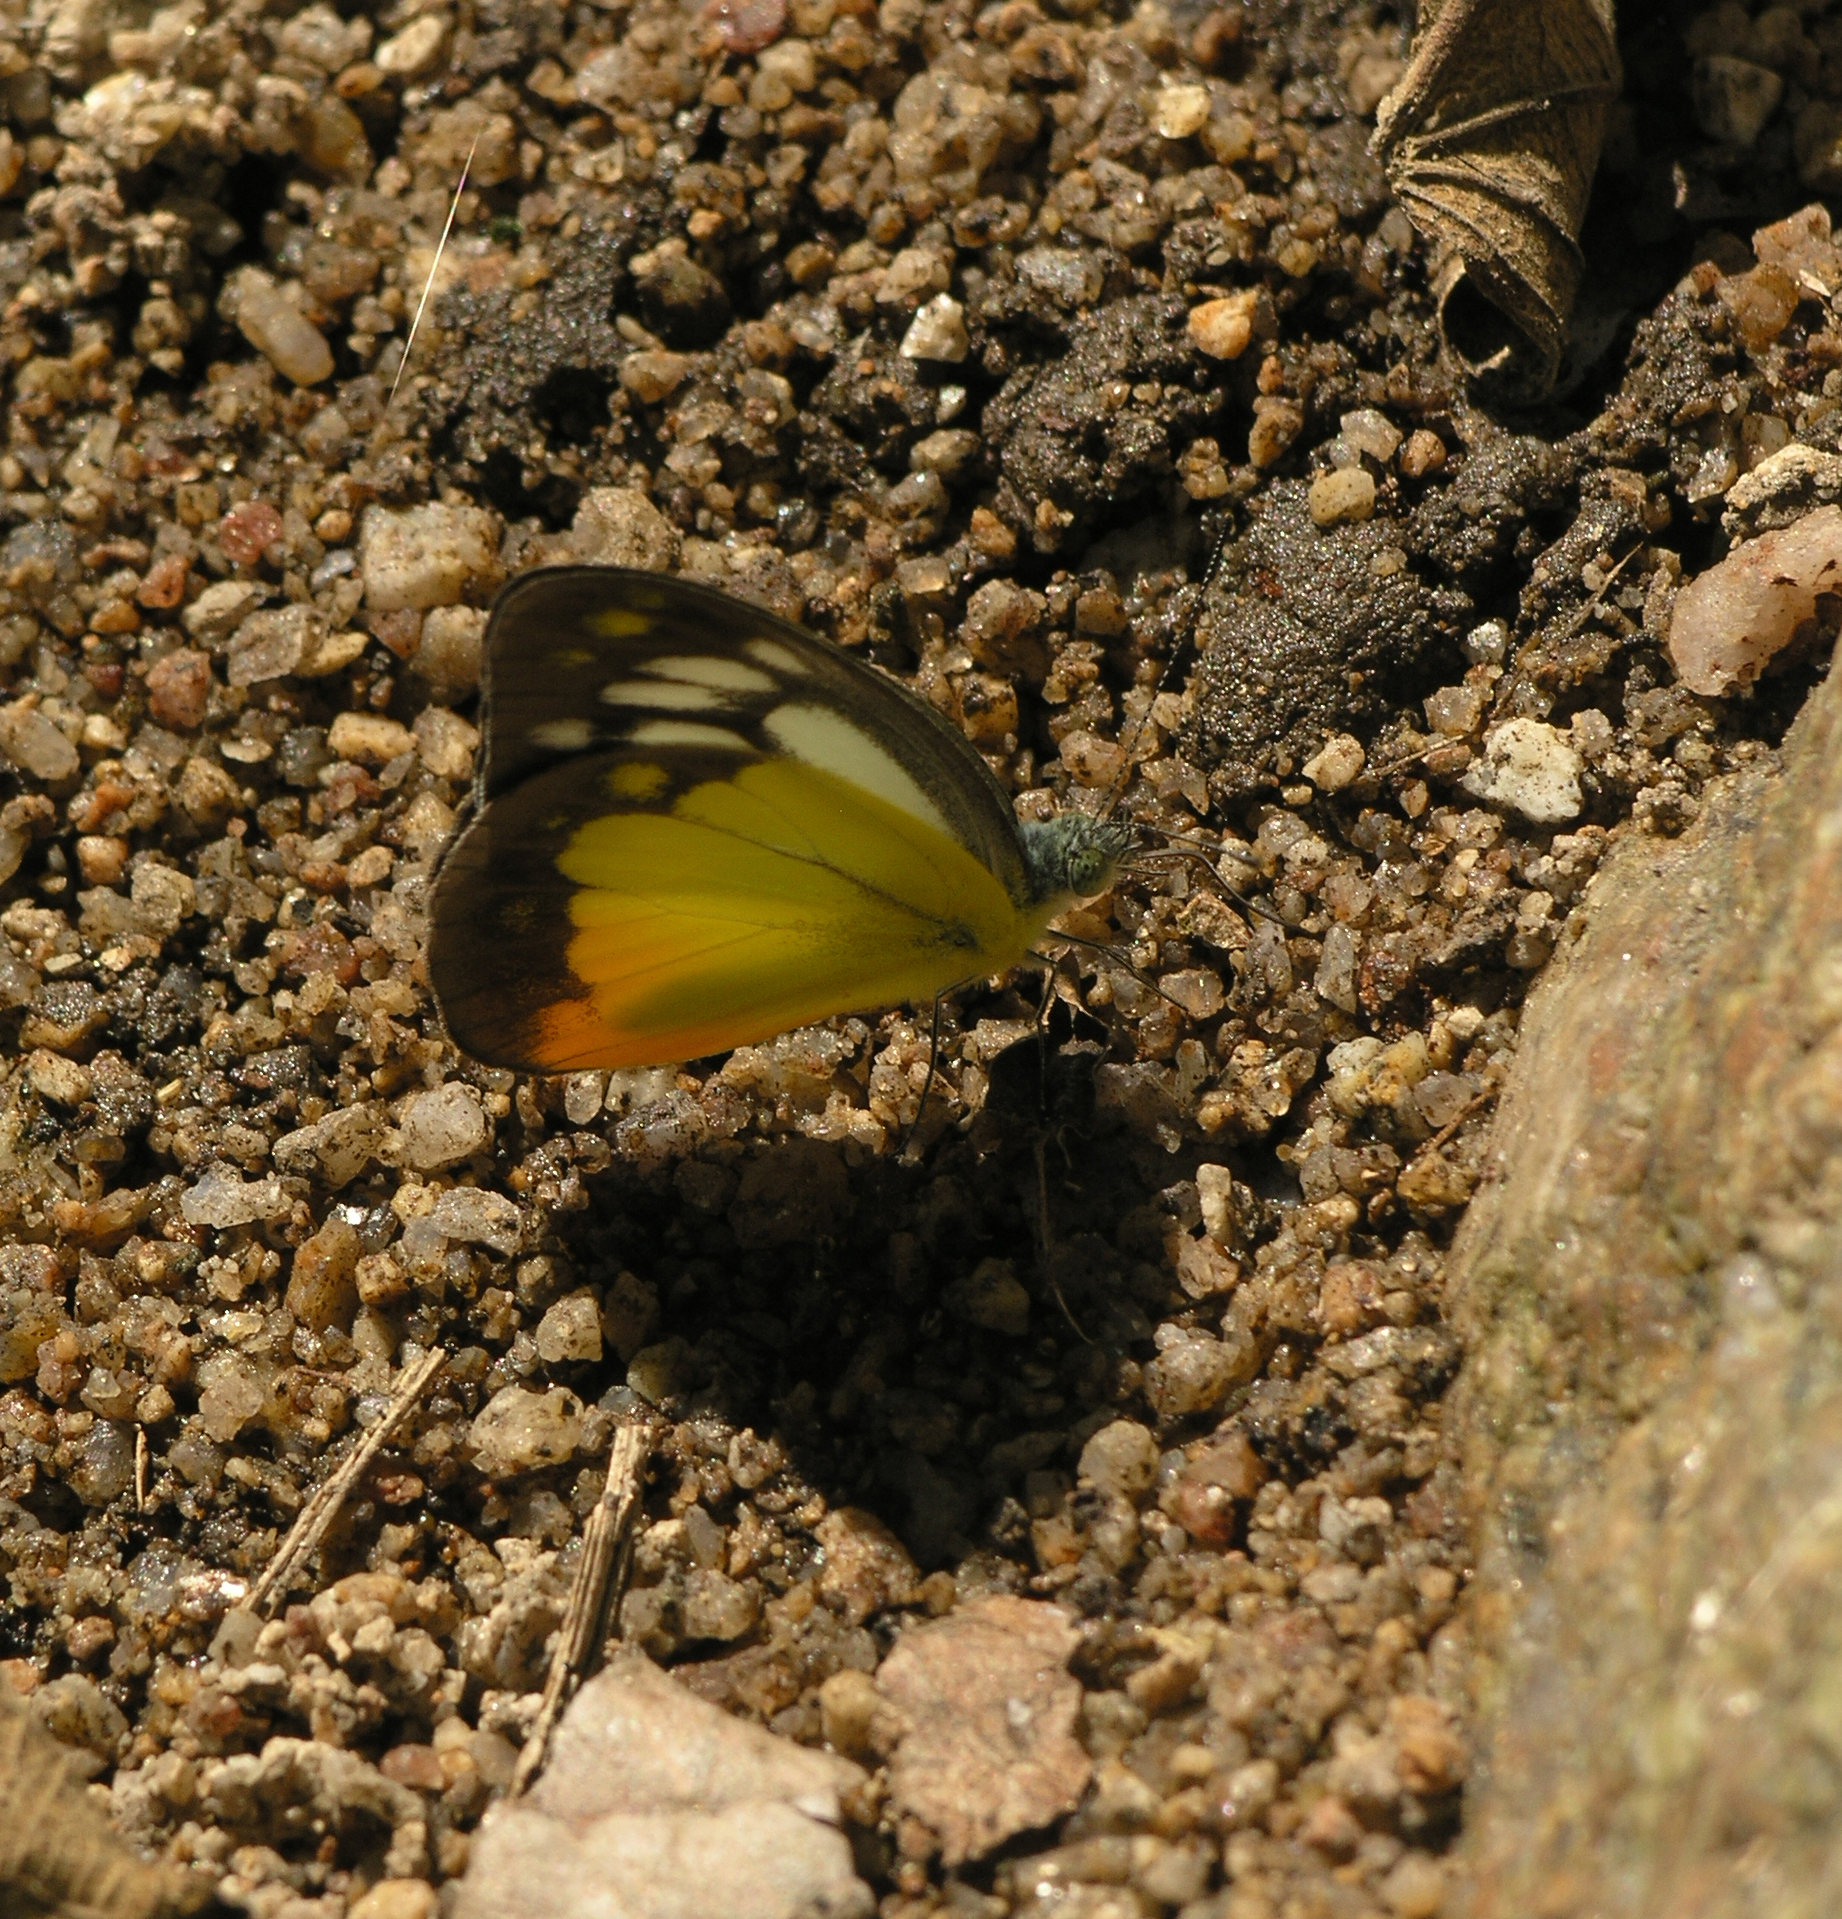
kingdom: Animalia
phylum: Arthropoda
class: Insecta
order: Lepidoptera
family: Pieridae
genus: Cepora
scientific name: Cepora iudith
